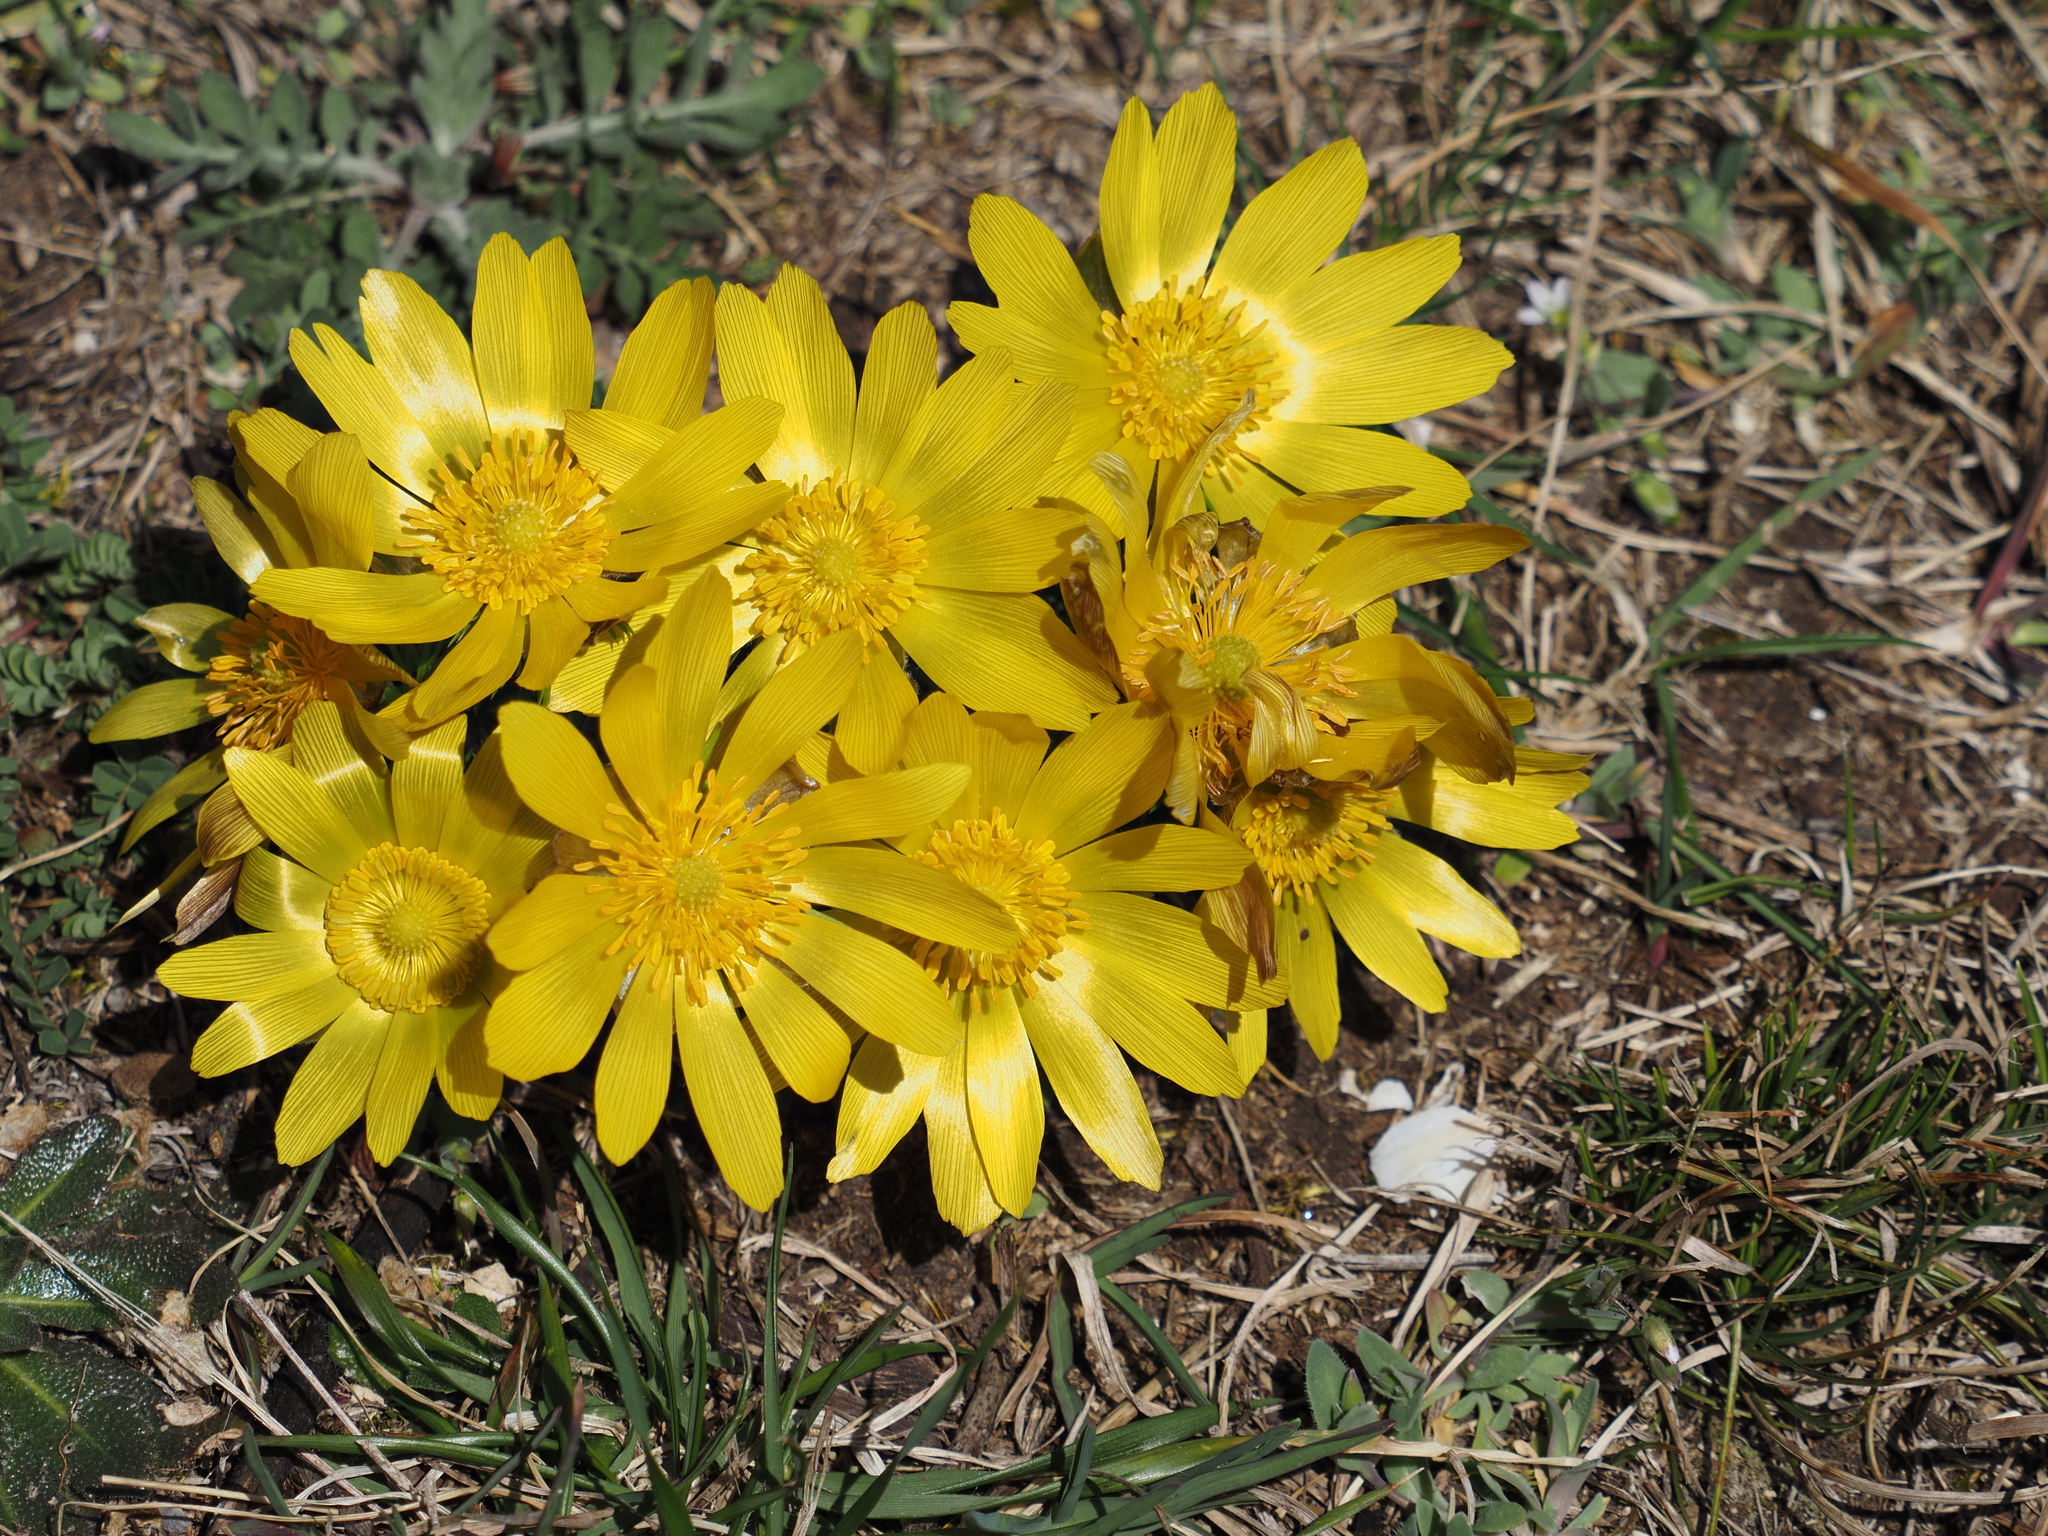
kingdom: Plantae
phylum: Tracheophyta
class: Magnoliopsida
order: Ranunculales
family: Ranunculaceae
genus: Adonis
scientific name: Adonis vernalis
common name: Yellow pheasants-eye
